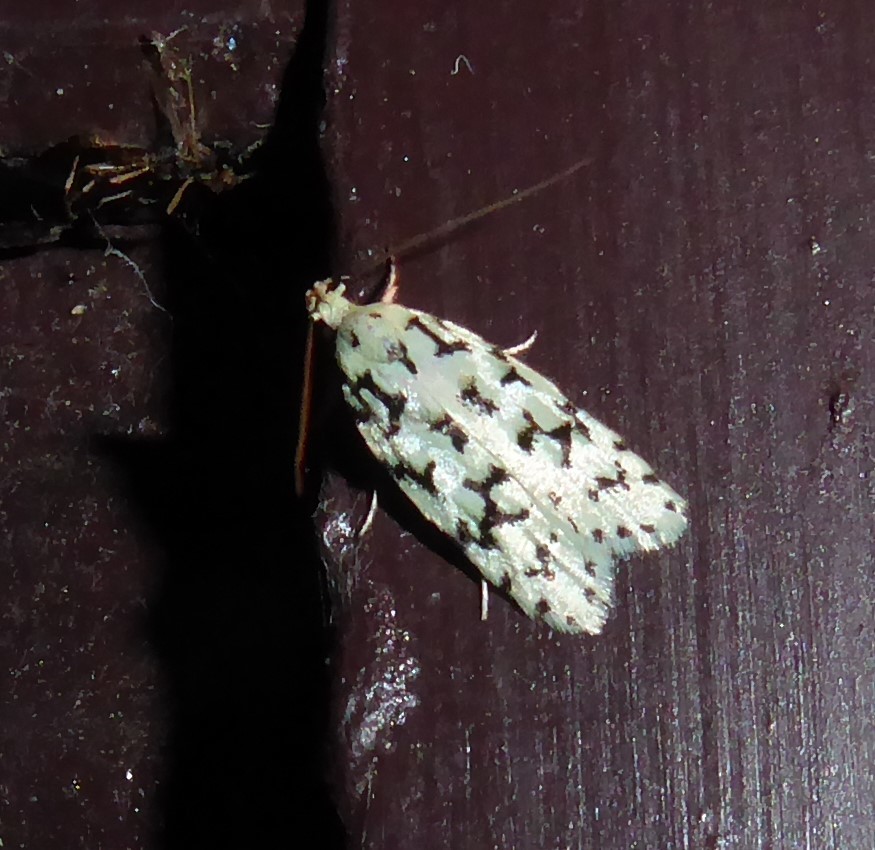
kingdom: Animalia
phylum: Arthropoda
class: Insecta
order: Lepidoptera
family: Oecophoridae
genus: Izatha
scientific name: Izatha huttoni
